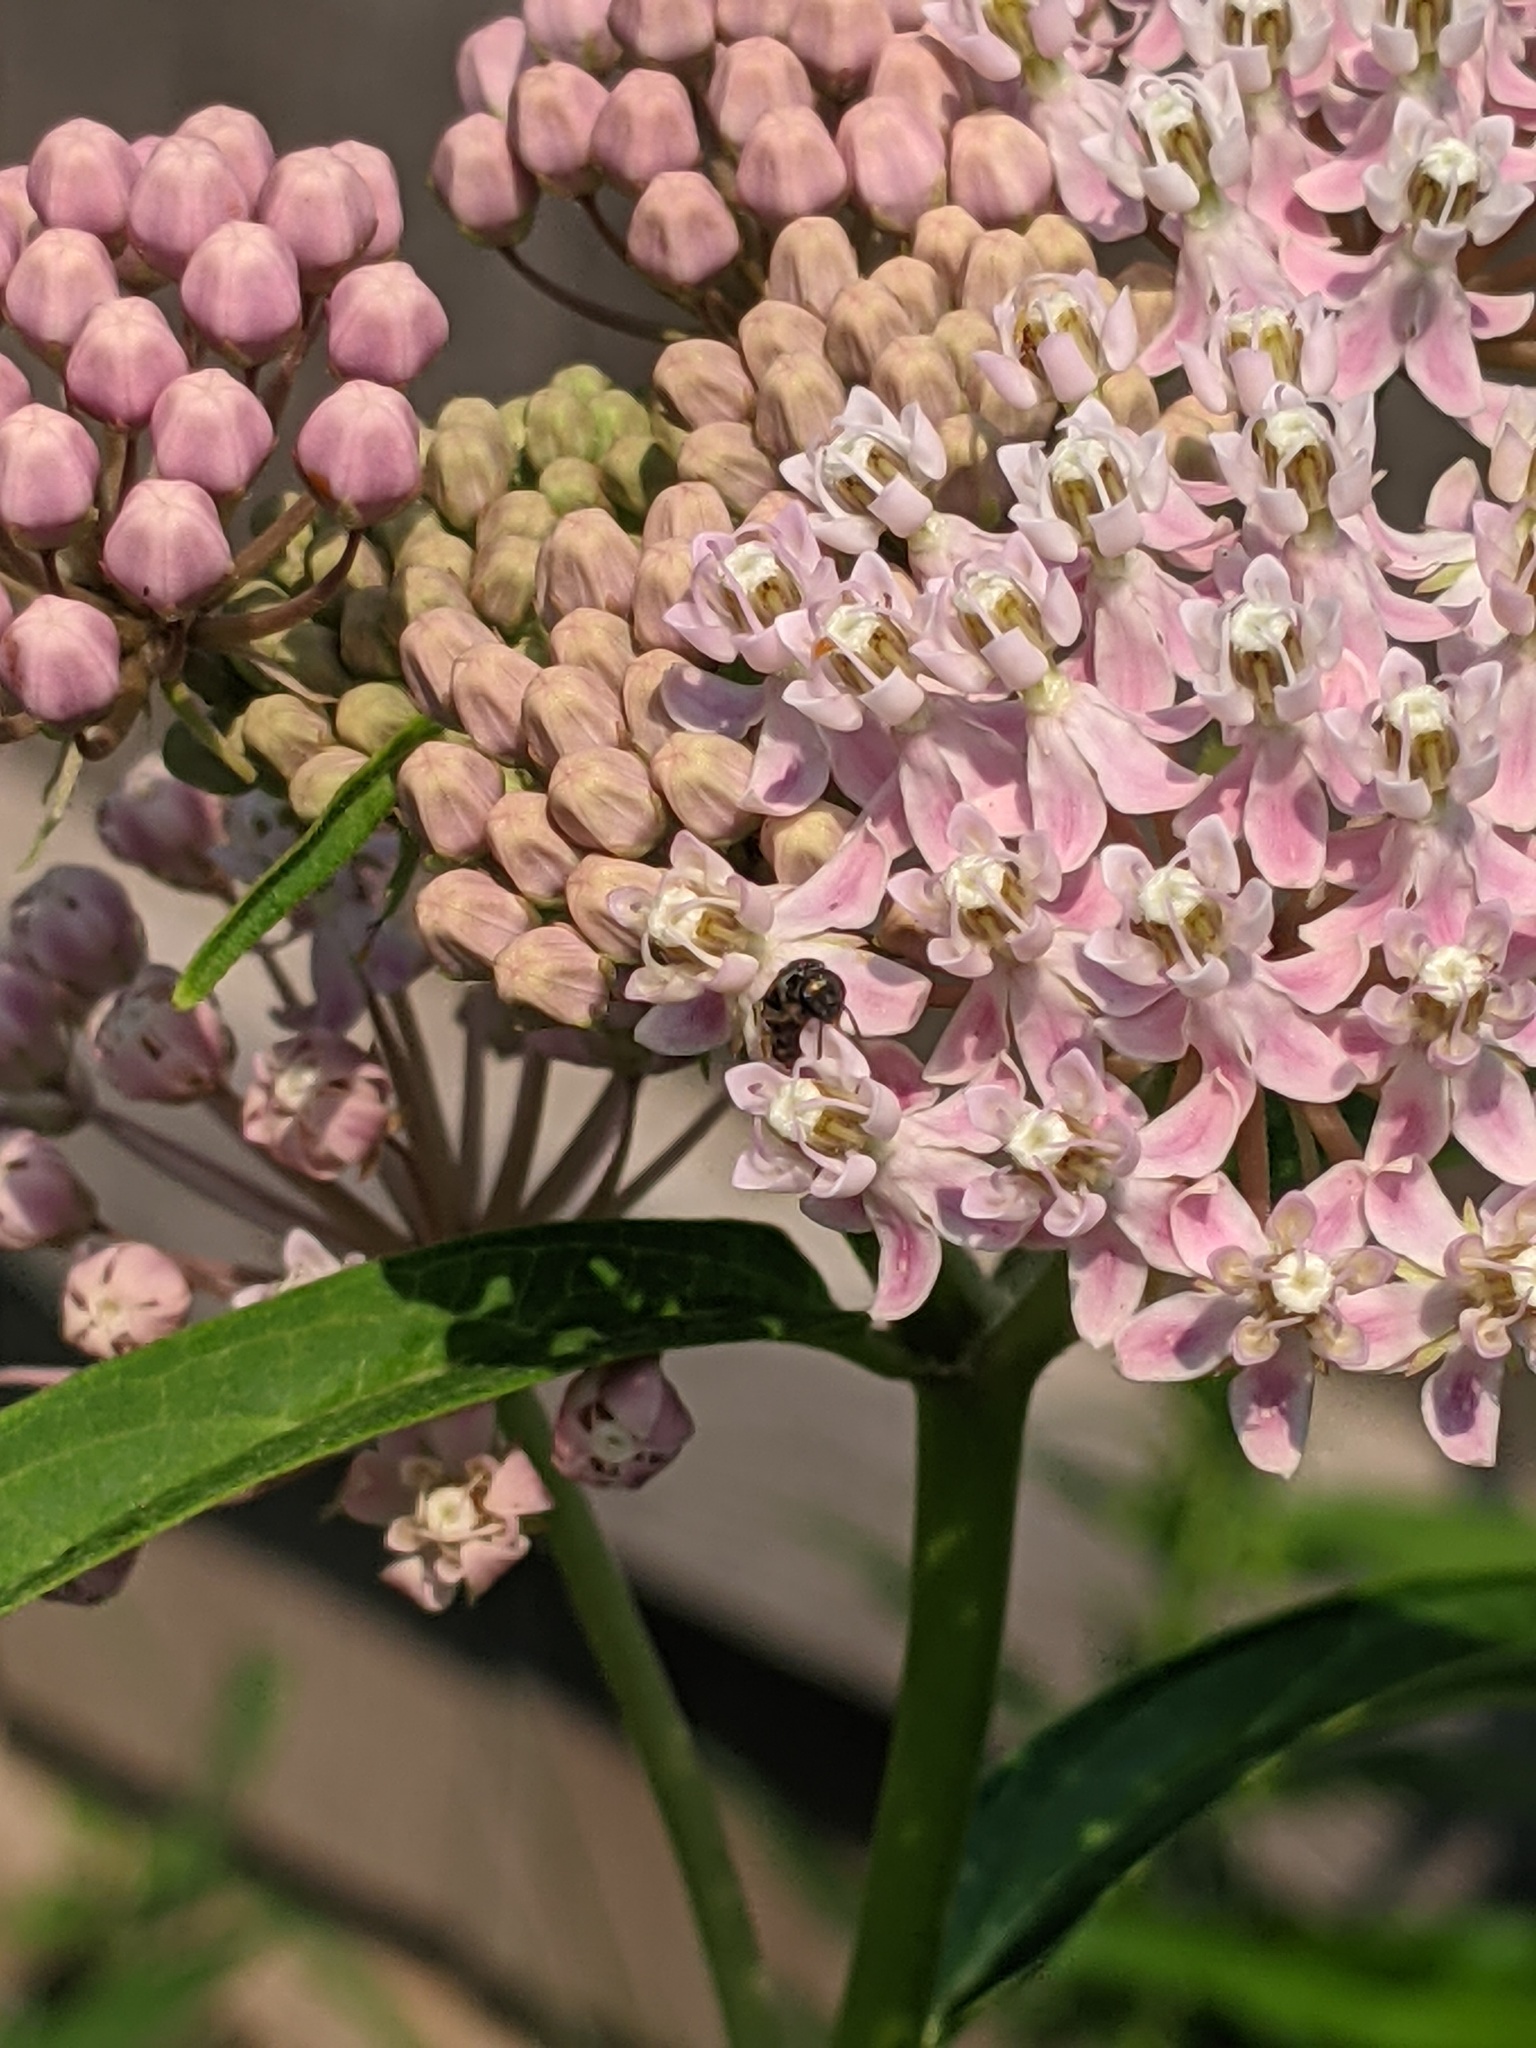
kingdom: Animalia
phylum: Arthropoda
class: Insecta
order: Hymenoptera
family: Halictidae
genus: Dialictus
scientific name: Dialictus
